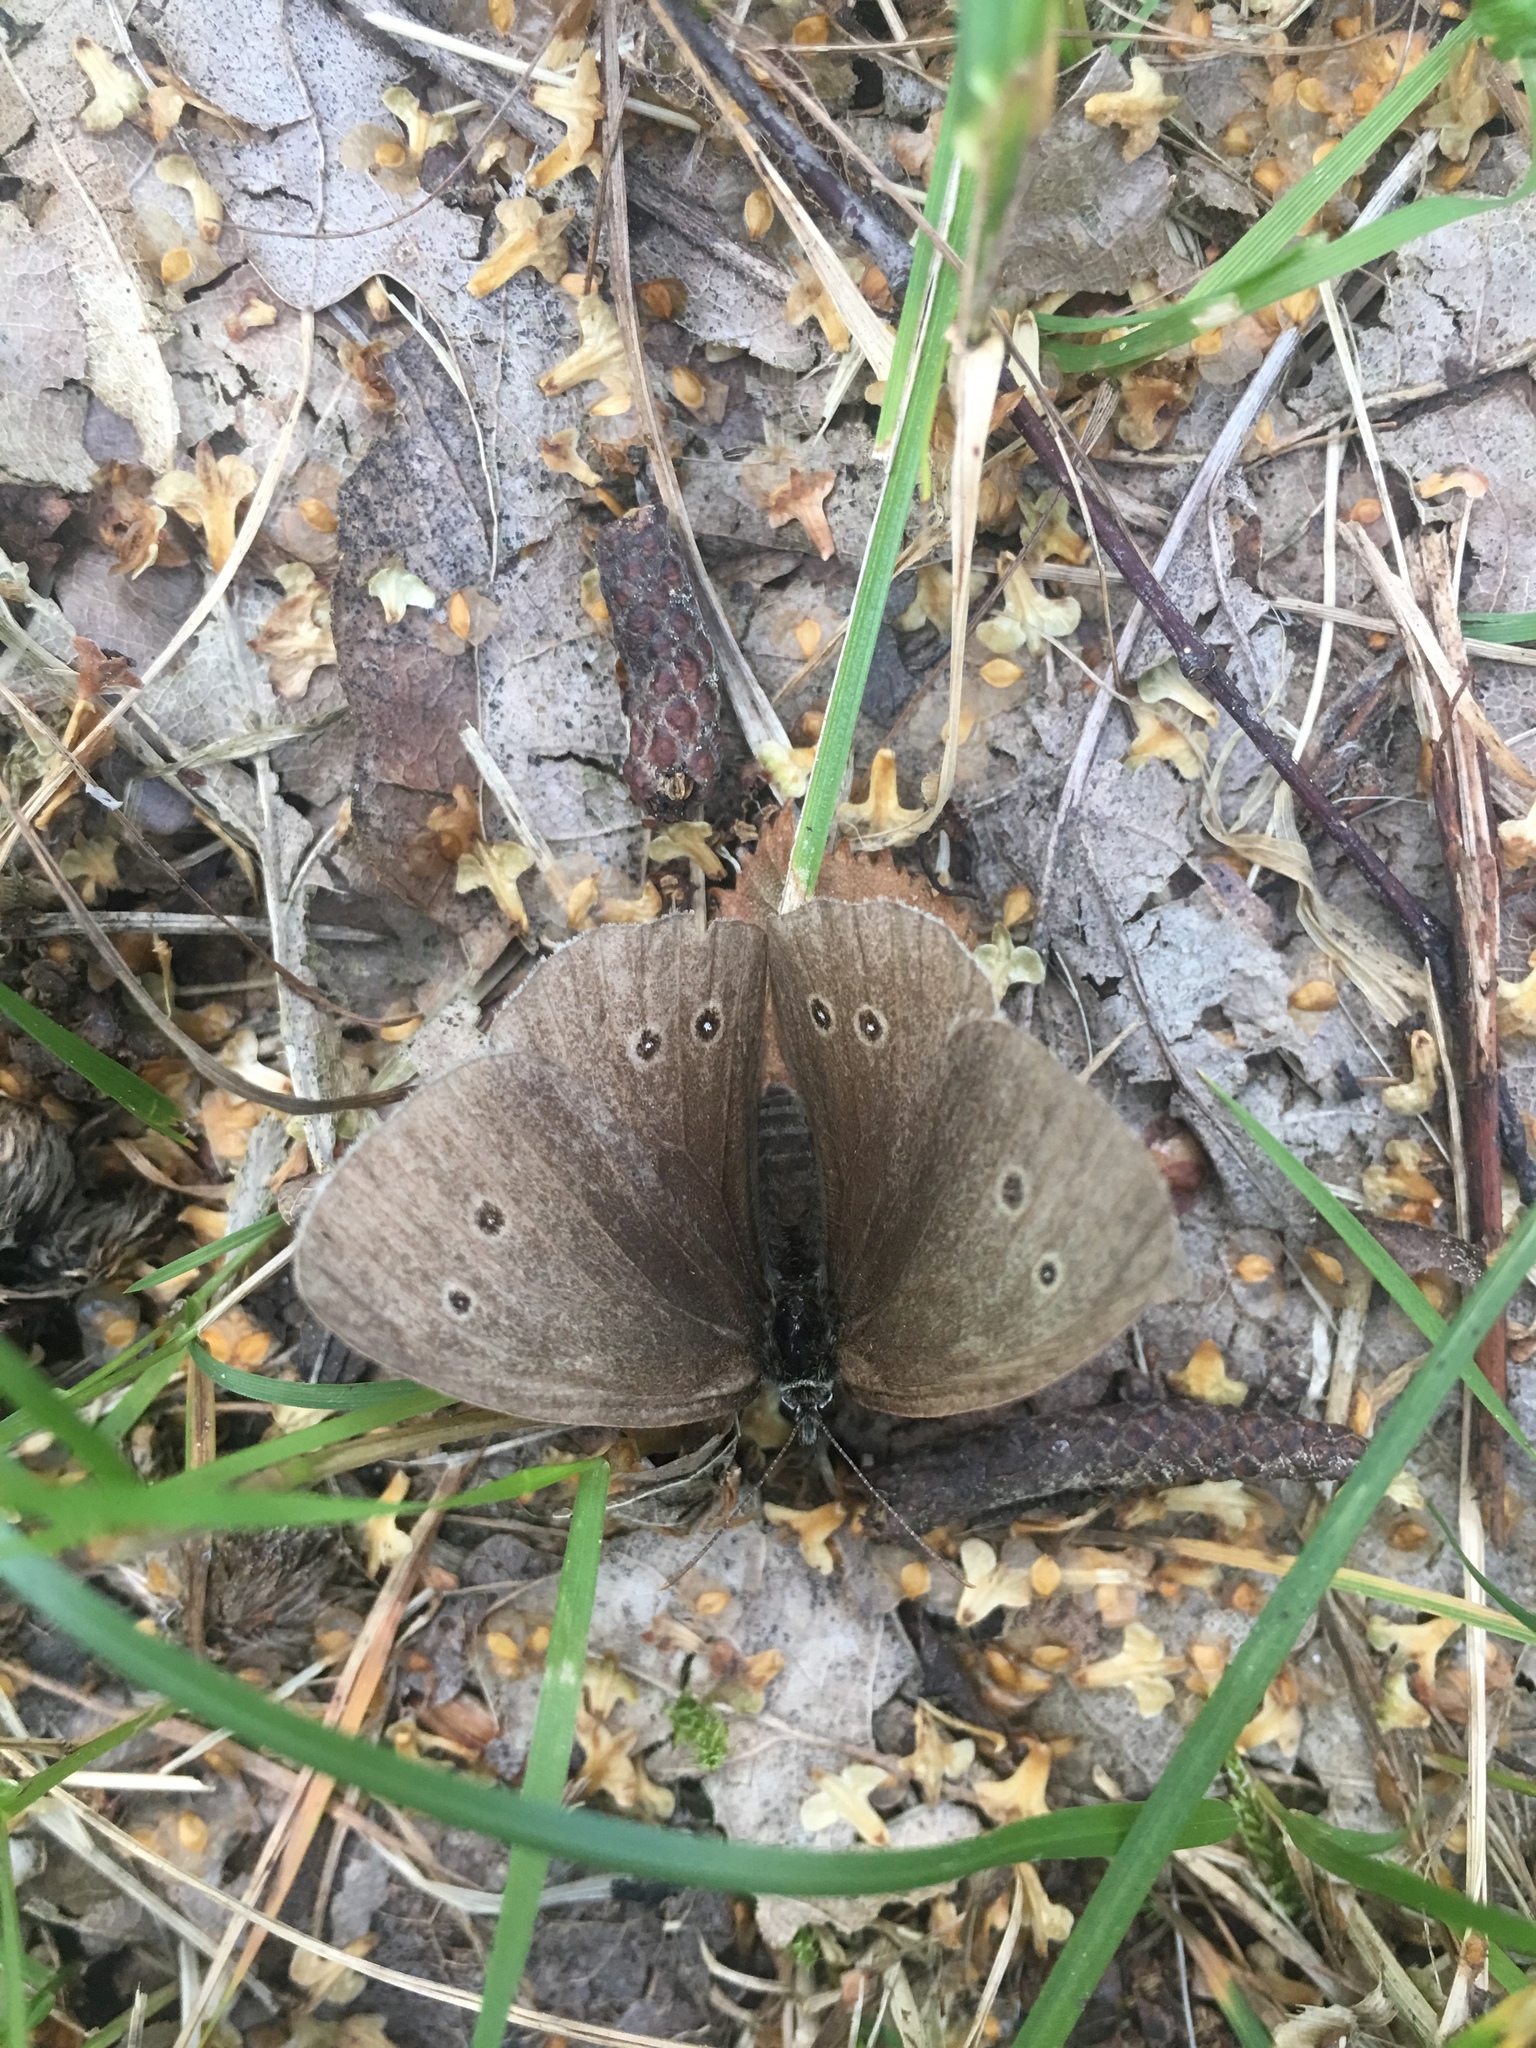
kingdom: Animalia
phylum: Arthropoda
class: Insecta
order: Lepidoptera
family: Nymphalidae
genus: Aphantopus
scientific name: Aphantopus hyperantus
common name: Ringlet
